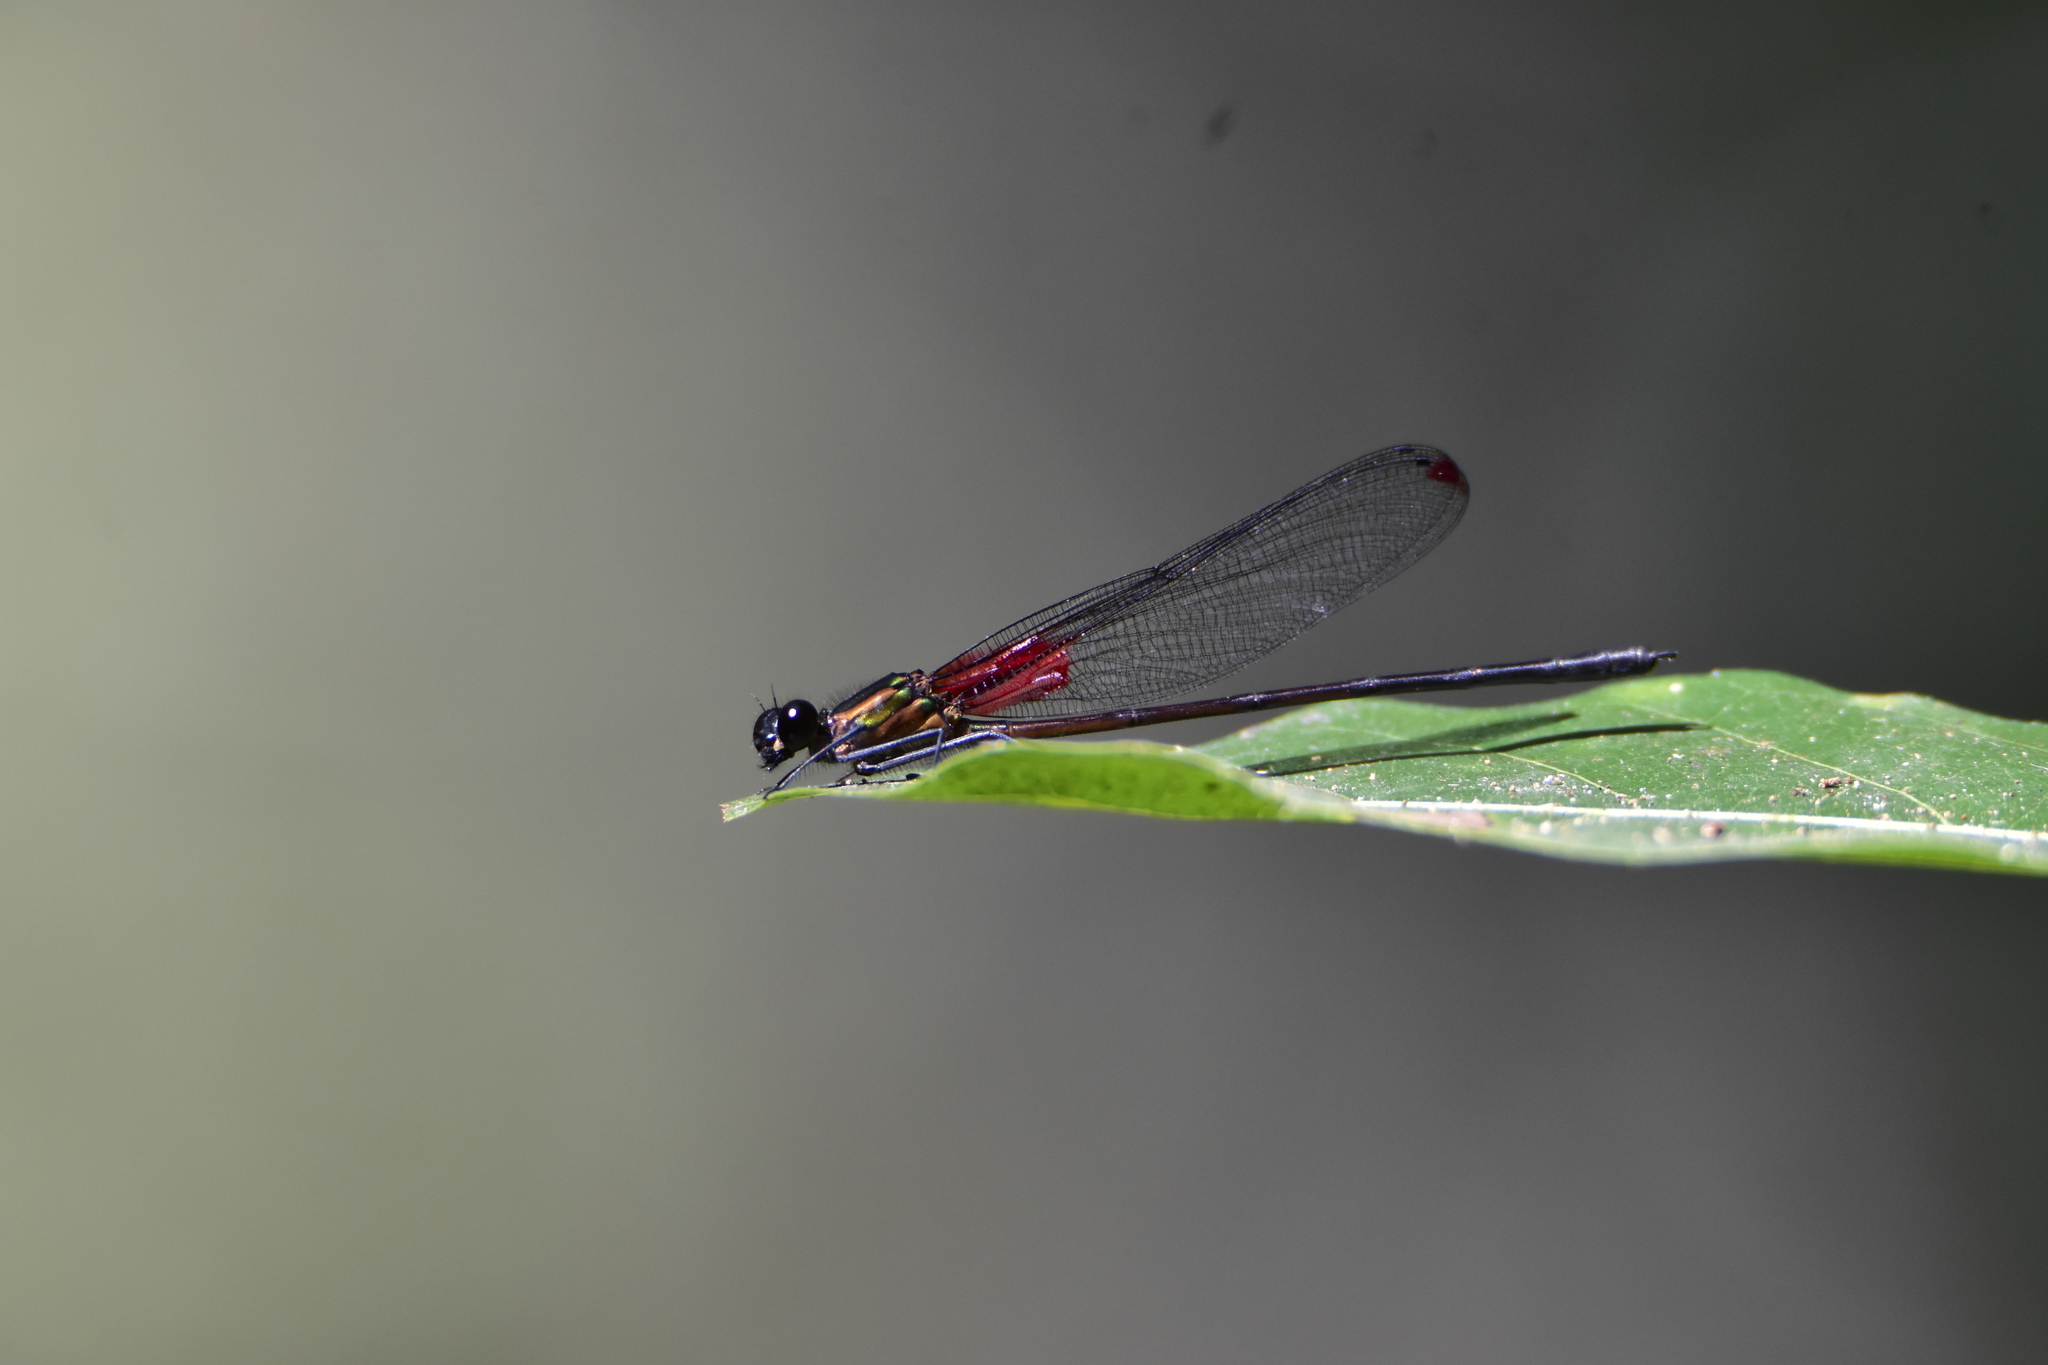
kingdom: Animalia
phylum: Arthropoda
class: Insecta
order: Odonata
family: Calopterygidae
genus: Hetaerina
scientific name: Hetaerina capitalis
